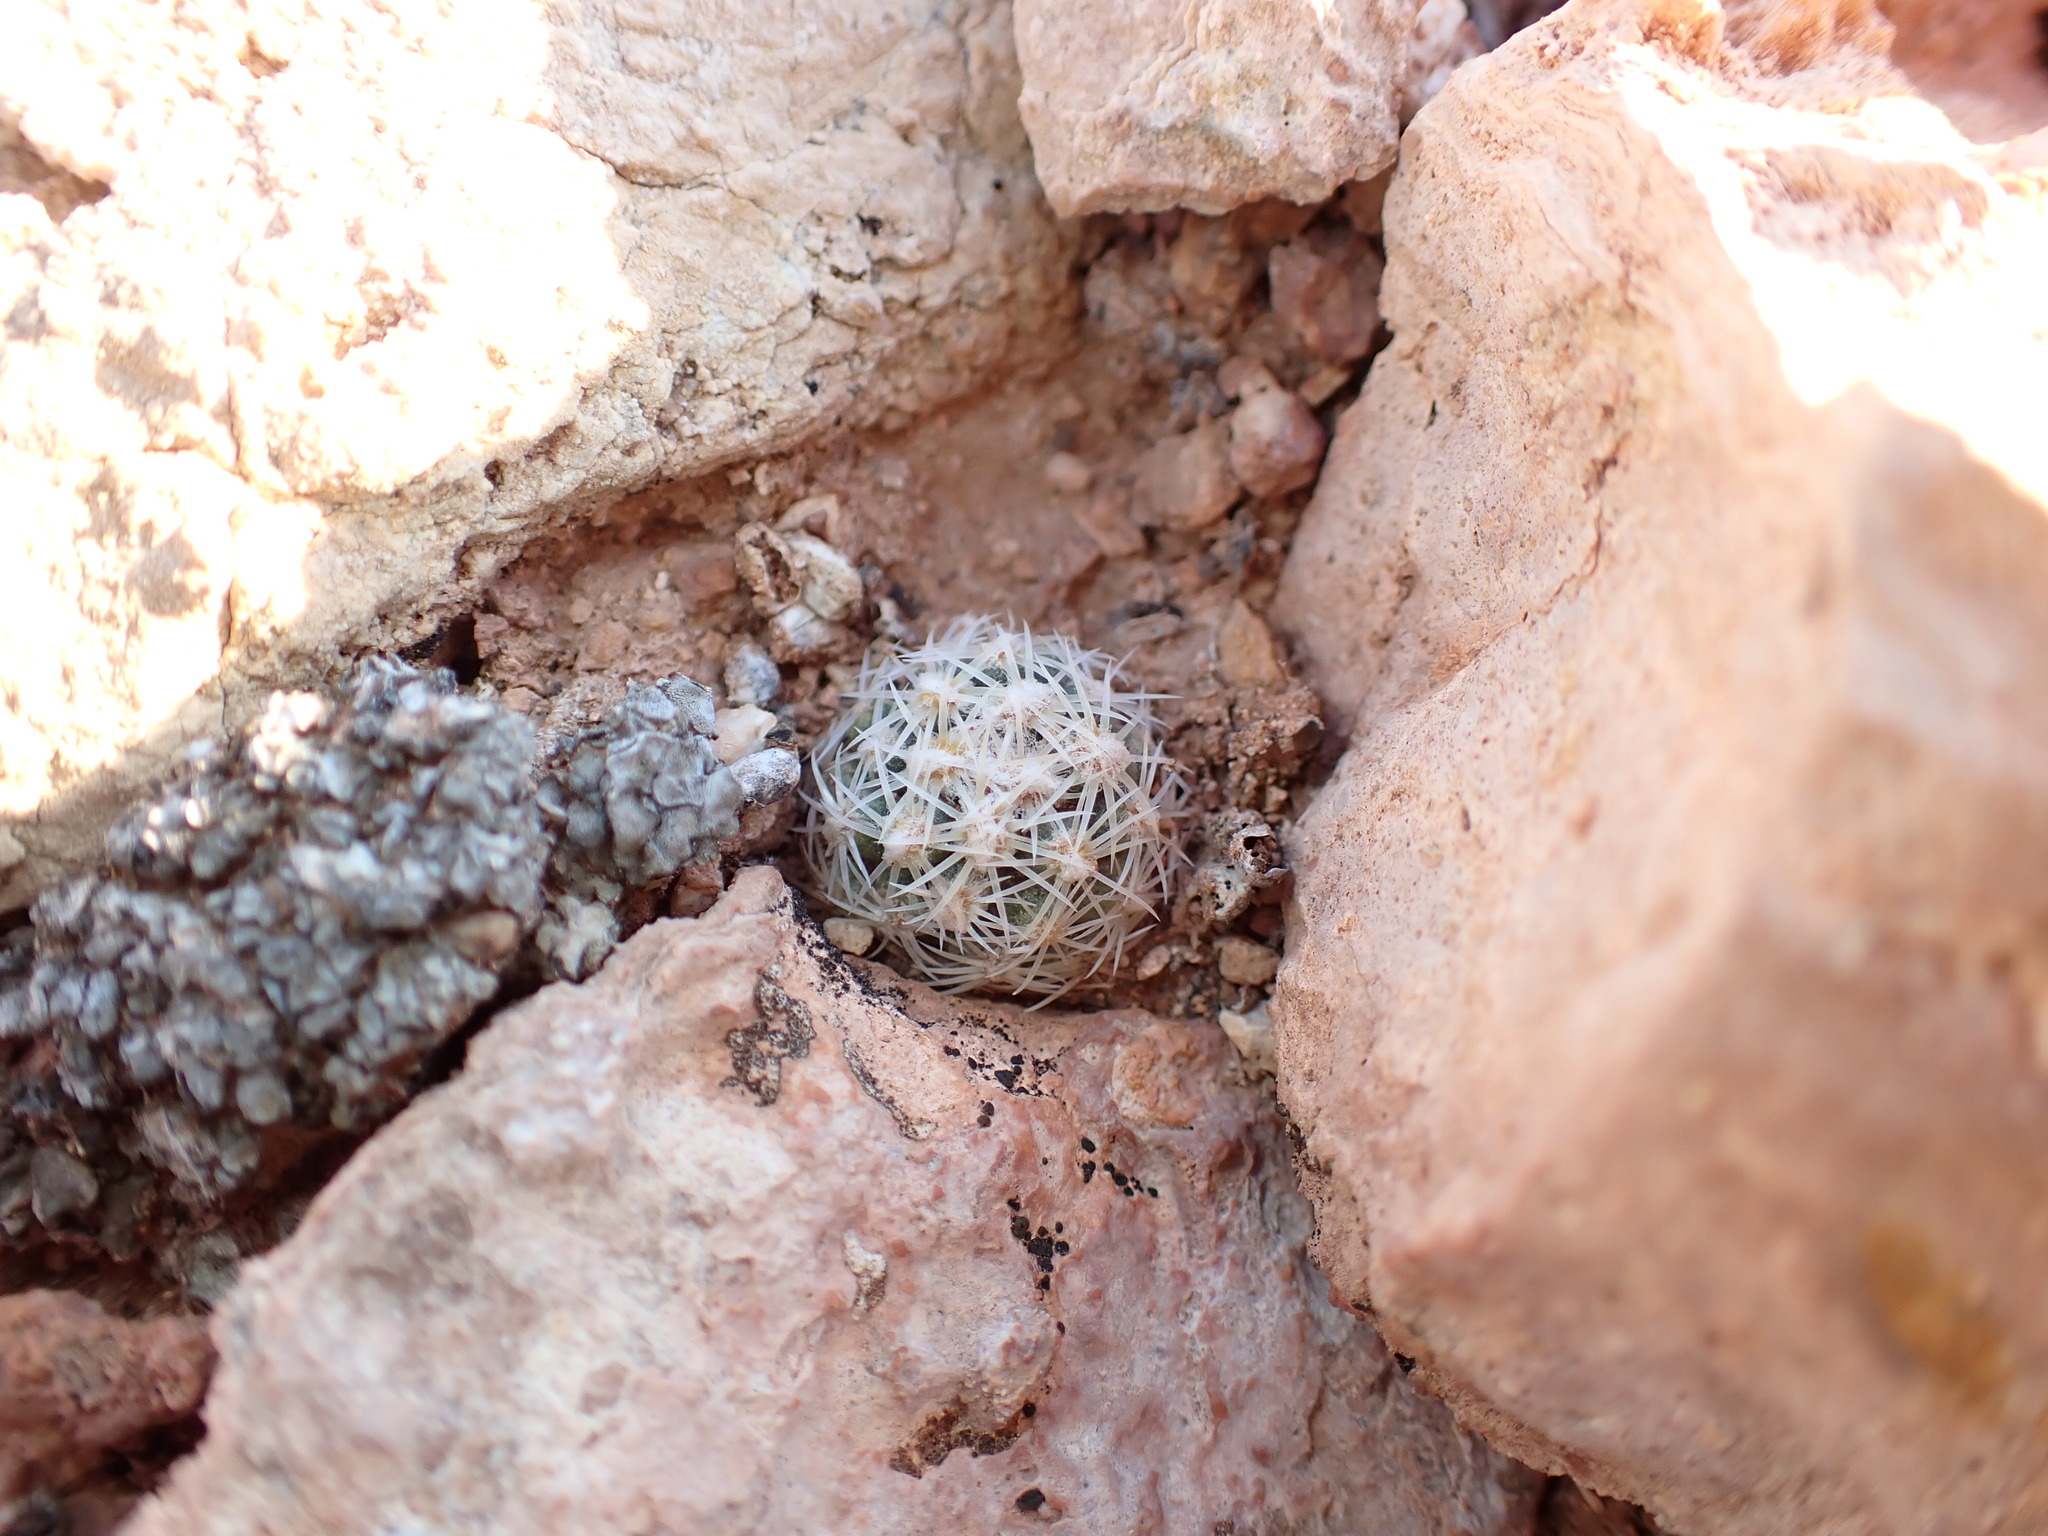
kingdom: Plantae
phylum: Tracheophyta
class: Magnoliopsida
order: Caryophyllales
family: Cactaceae
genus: Pediocactus
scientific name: Pediocactus bradyi
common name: Brady's hedgehog cactus
